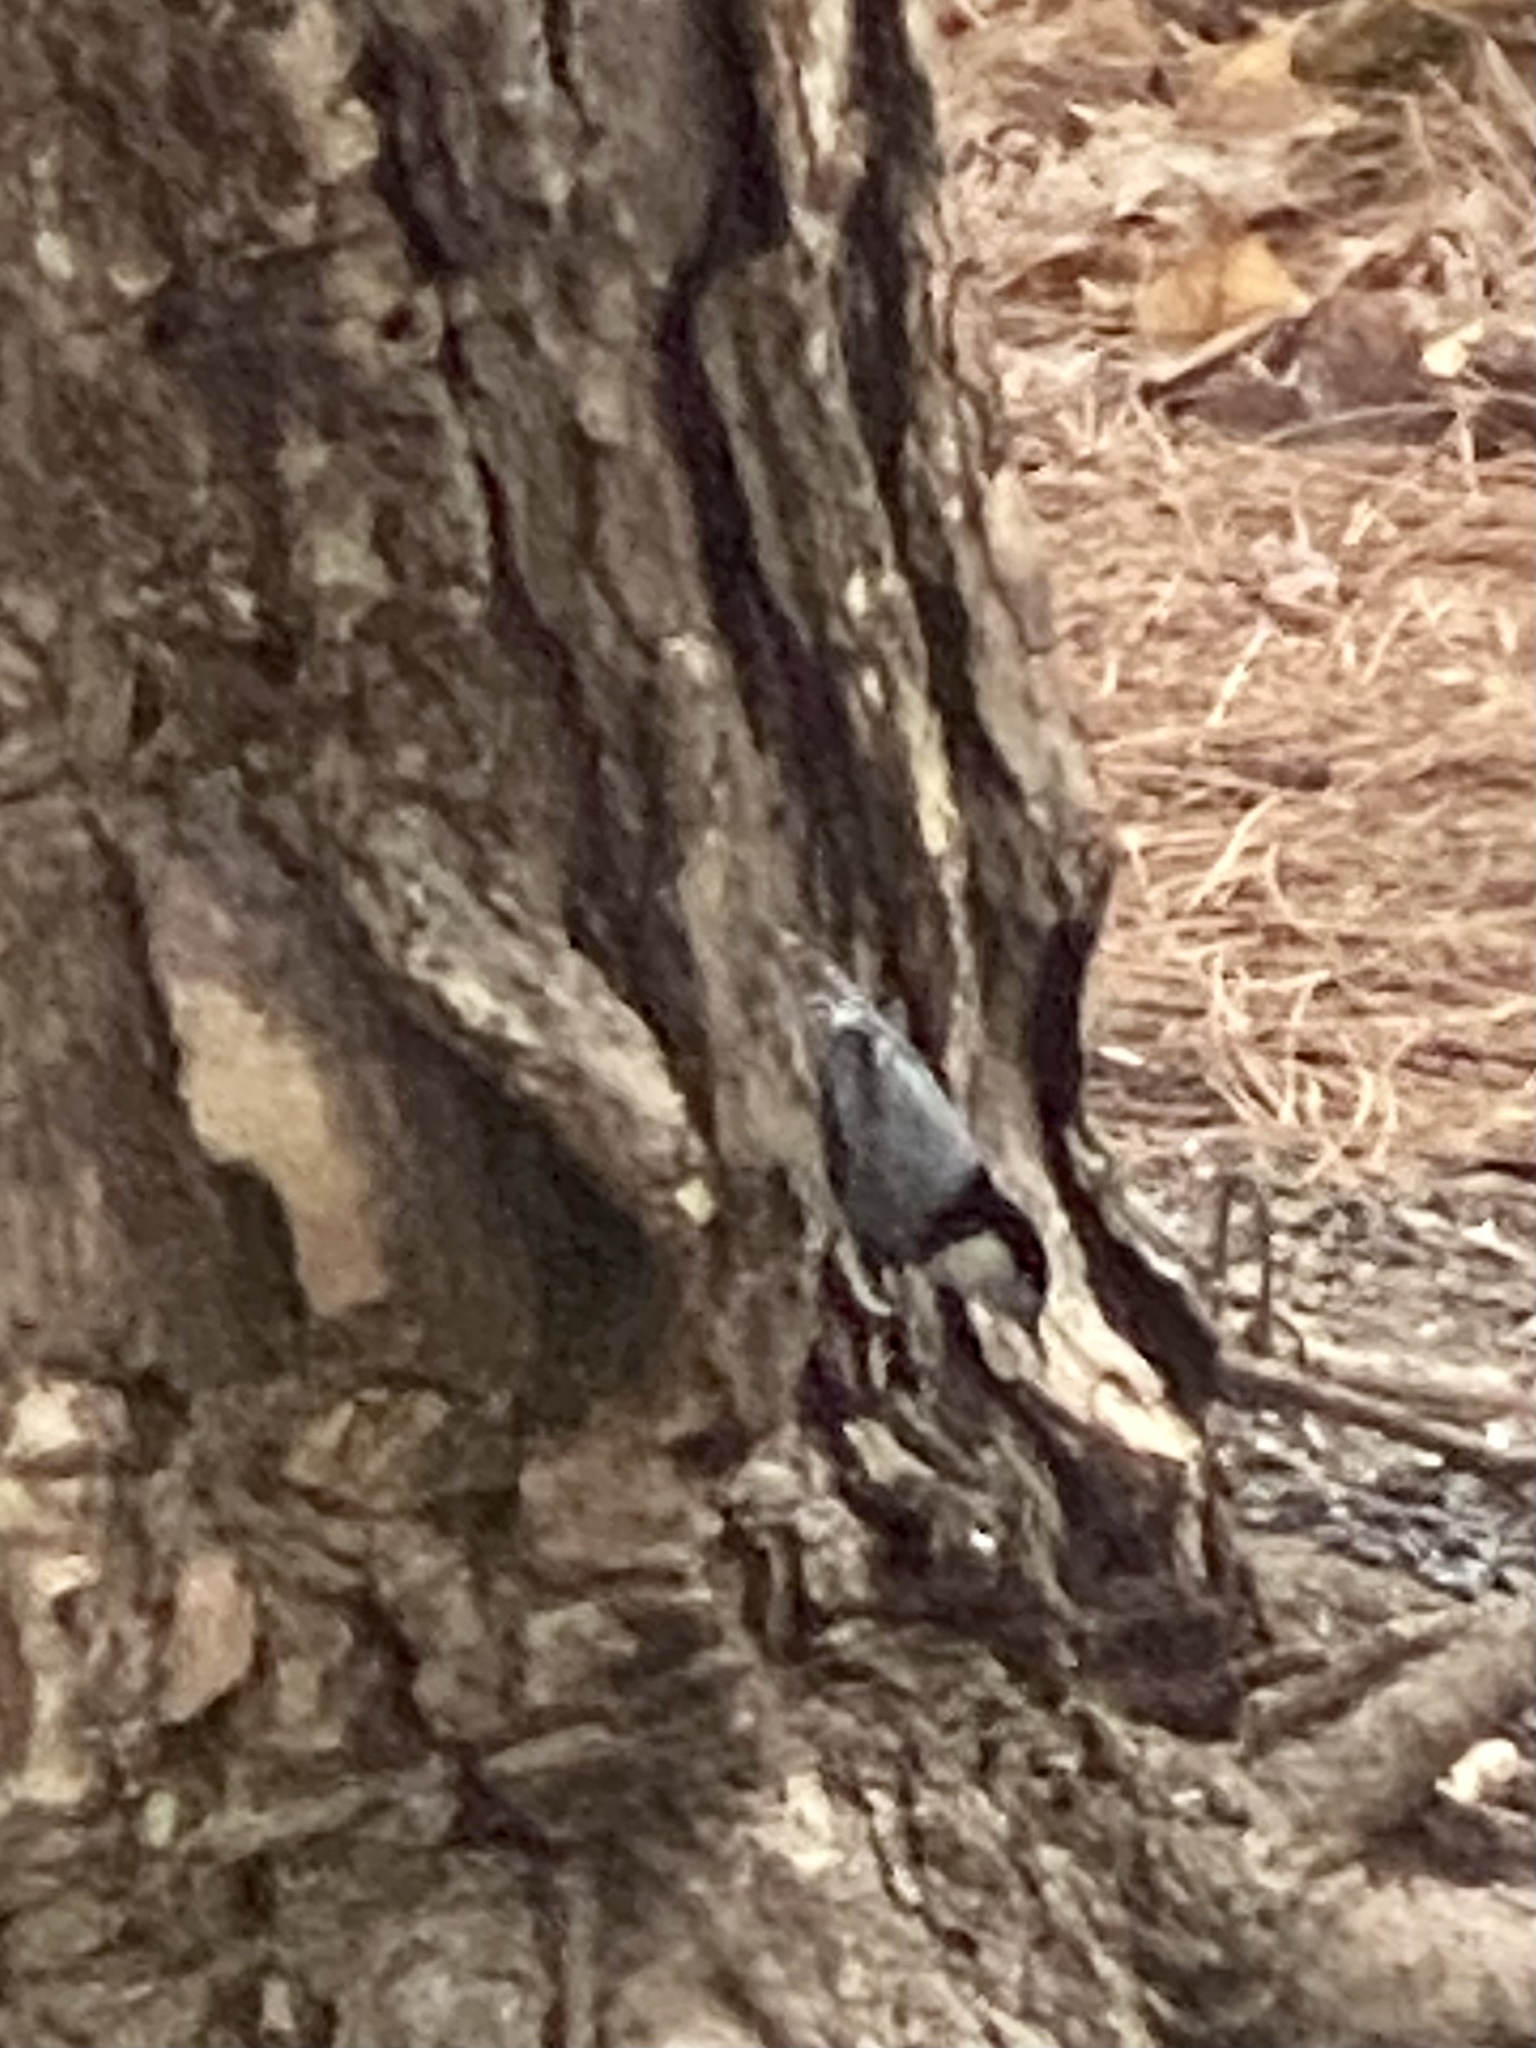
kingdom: Animalia
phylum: Chordata
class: Aves
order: Passeriformes
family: Sittidae
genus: Sitta
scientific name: Sitta carolinensis
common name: White-breasted nuthatch
